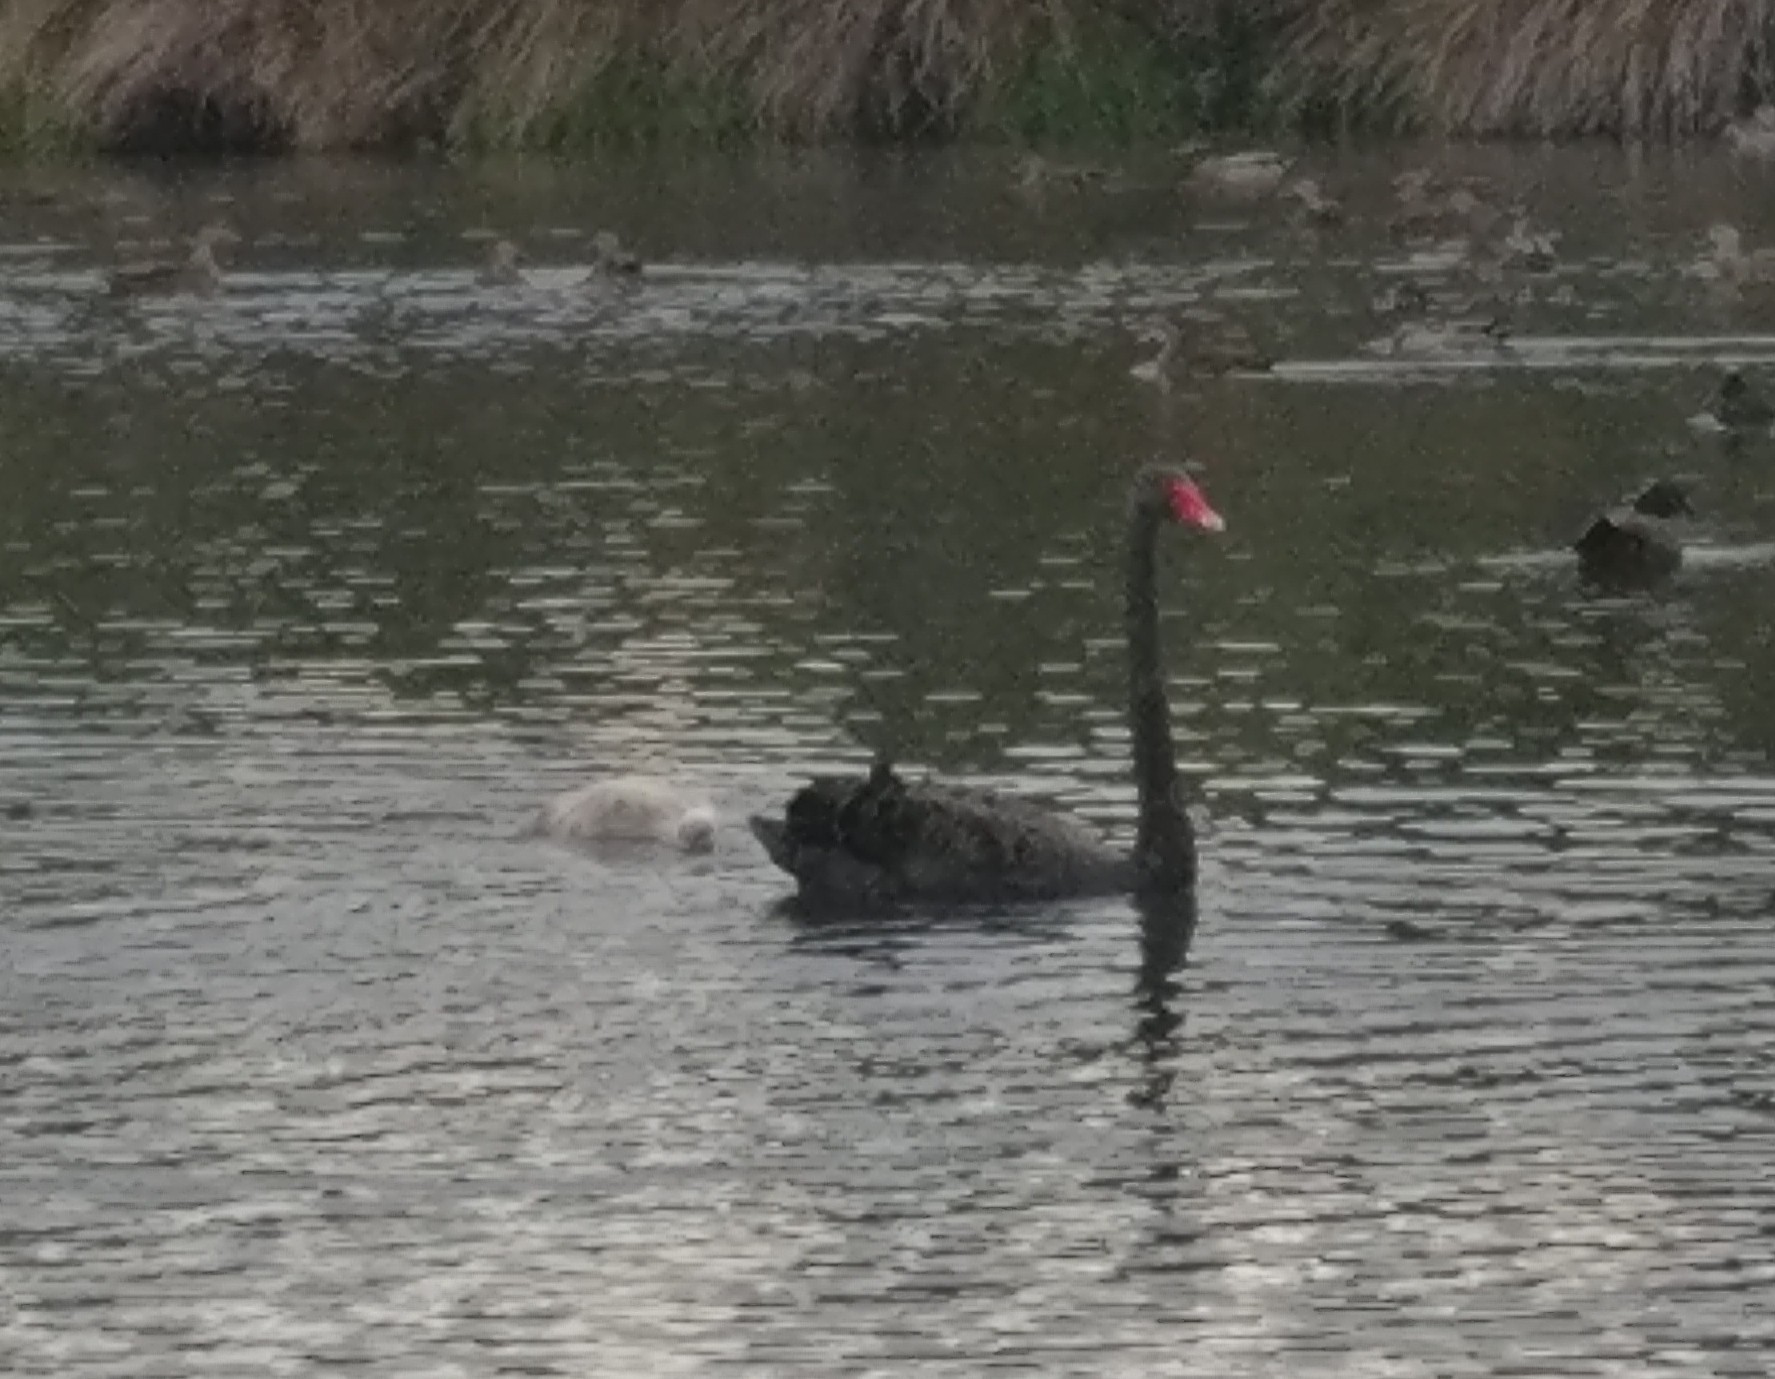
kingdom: Animalia
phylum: Chordata
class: Aves
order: Anseriformes
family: Anatidae
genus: Cygnus
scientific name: Cygnus atratus
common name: Black swan
